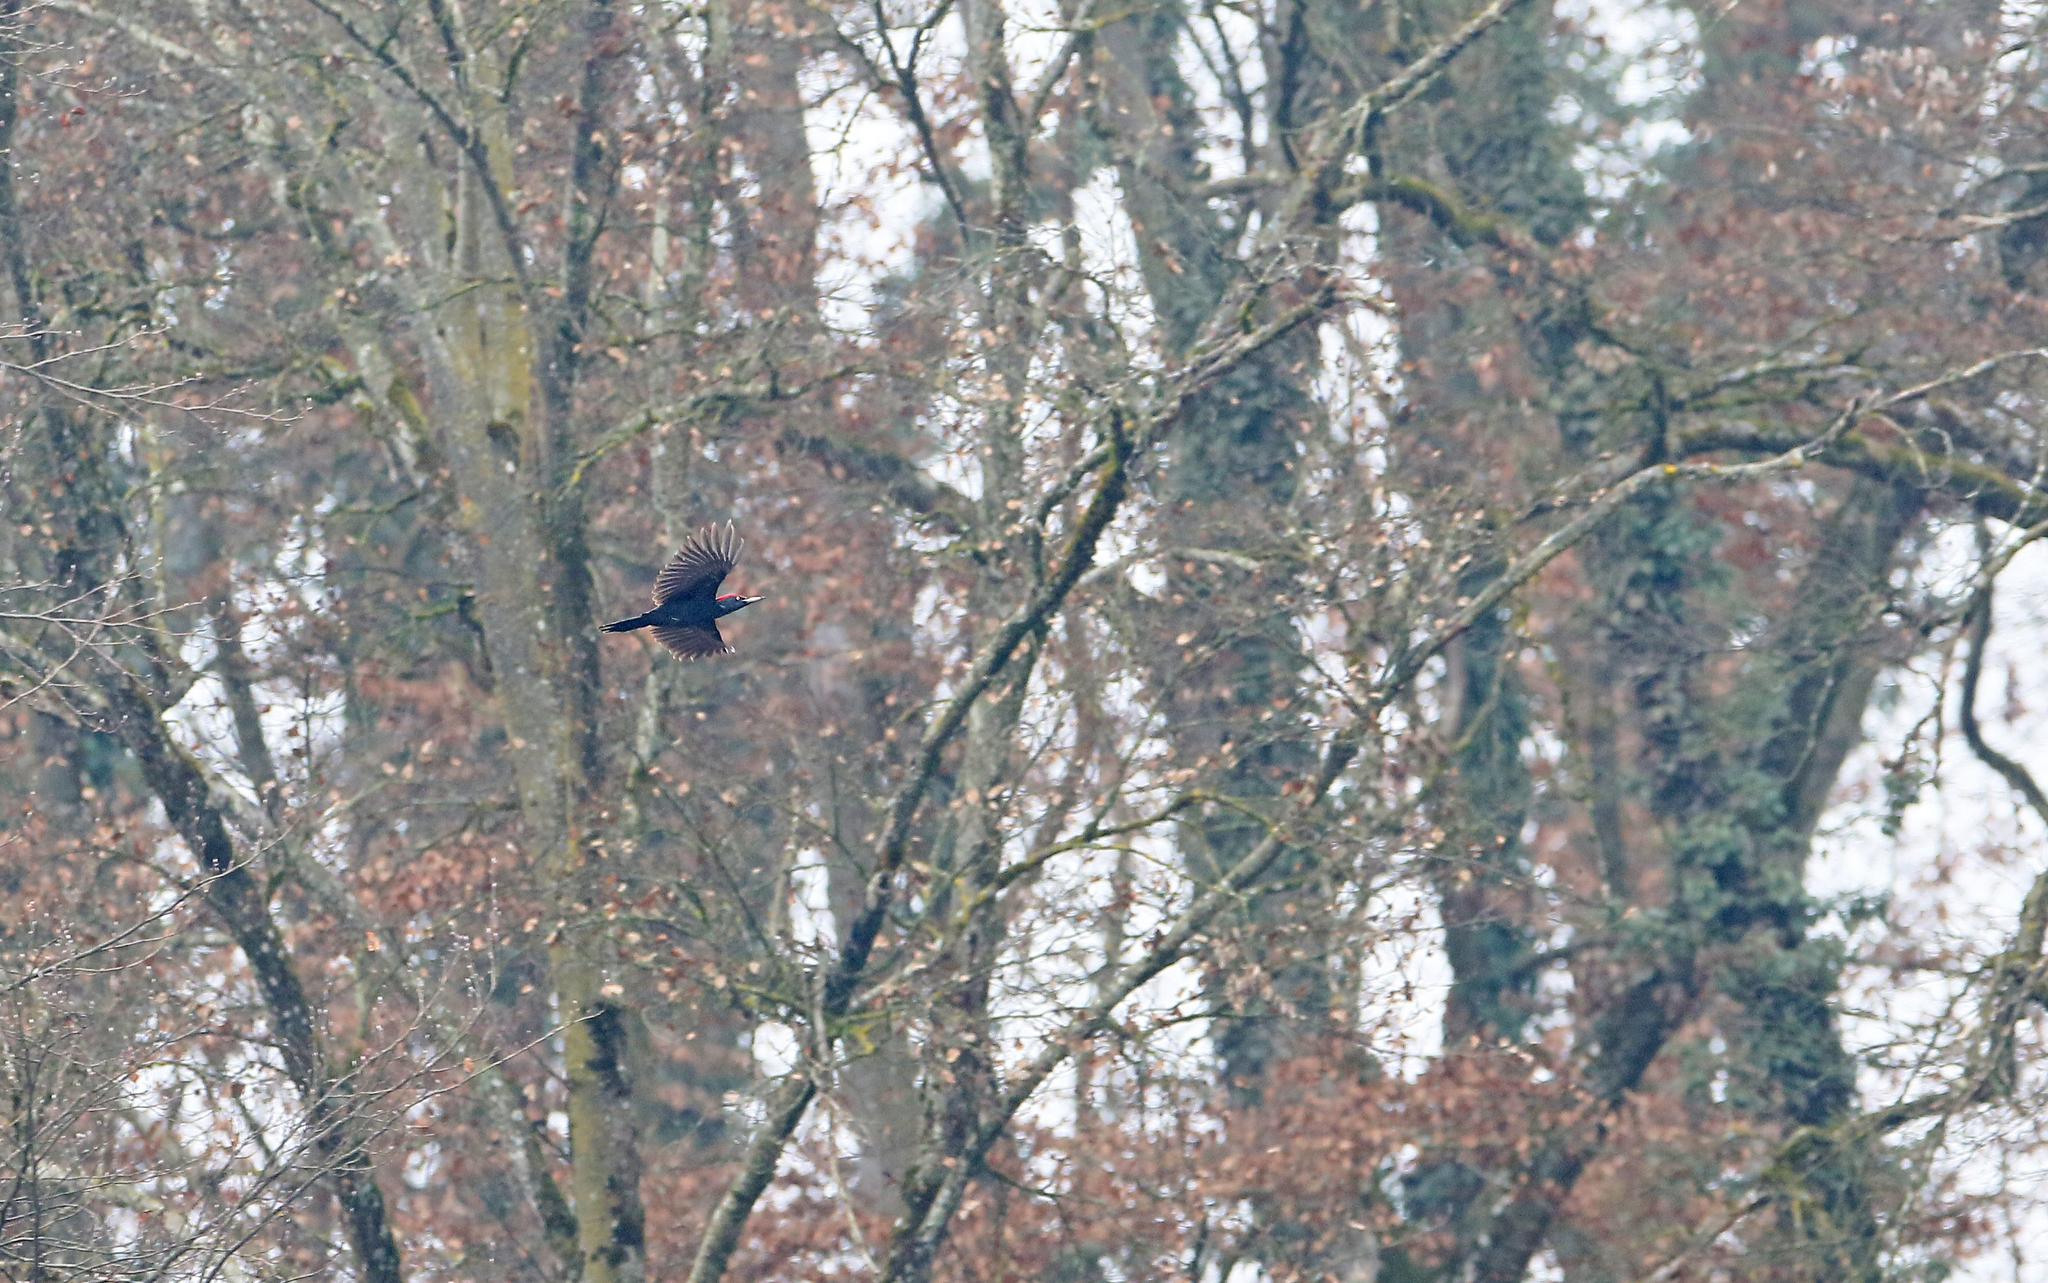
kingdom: Animalia
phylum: Chordata
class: Aves
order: Piciformes
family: Picidae
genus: Dryocopus
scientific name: Dryocopus martius
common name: Black woodpecker
